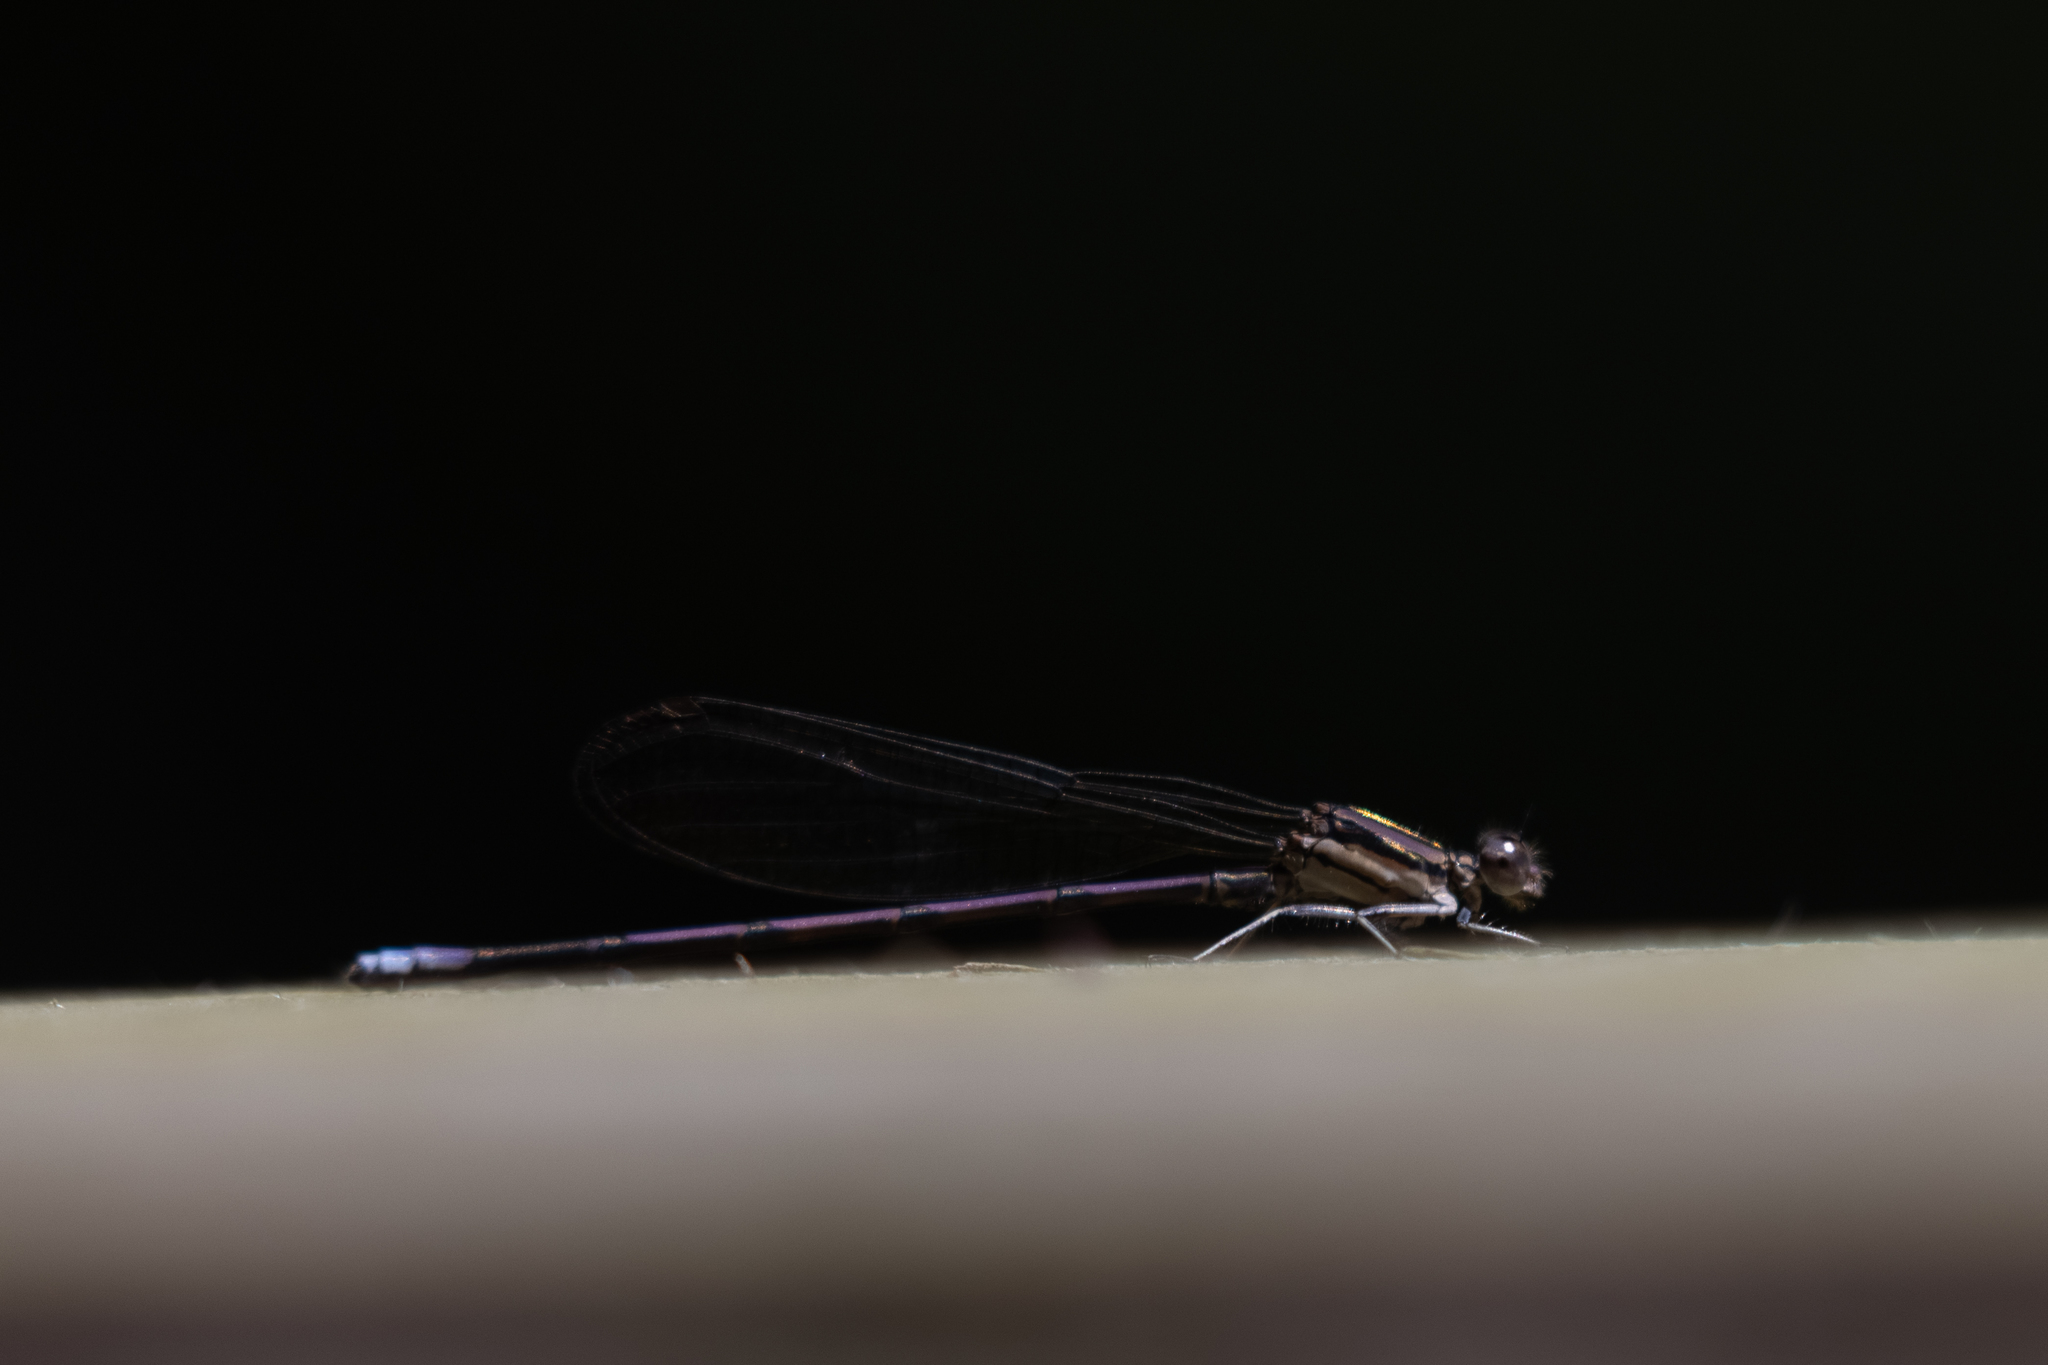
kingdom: Animalia
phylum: Arthropoda
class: Insecta
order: Odonata
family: Coenagrionidae
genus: Argia
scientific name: Argia fumipennis
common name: Variable dancer
